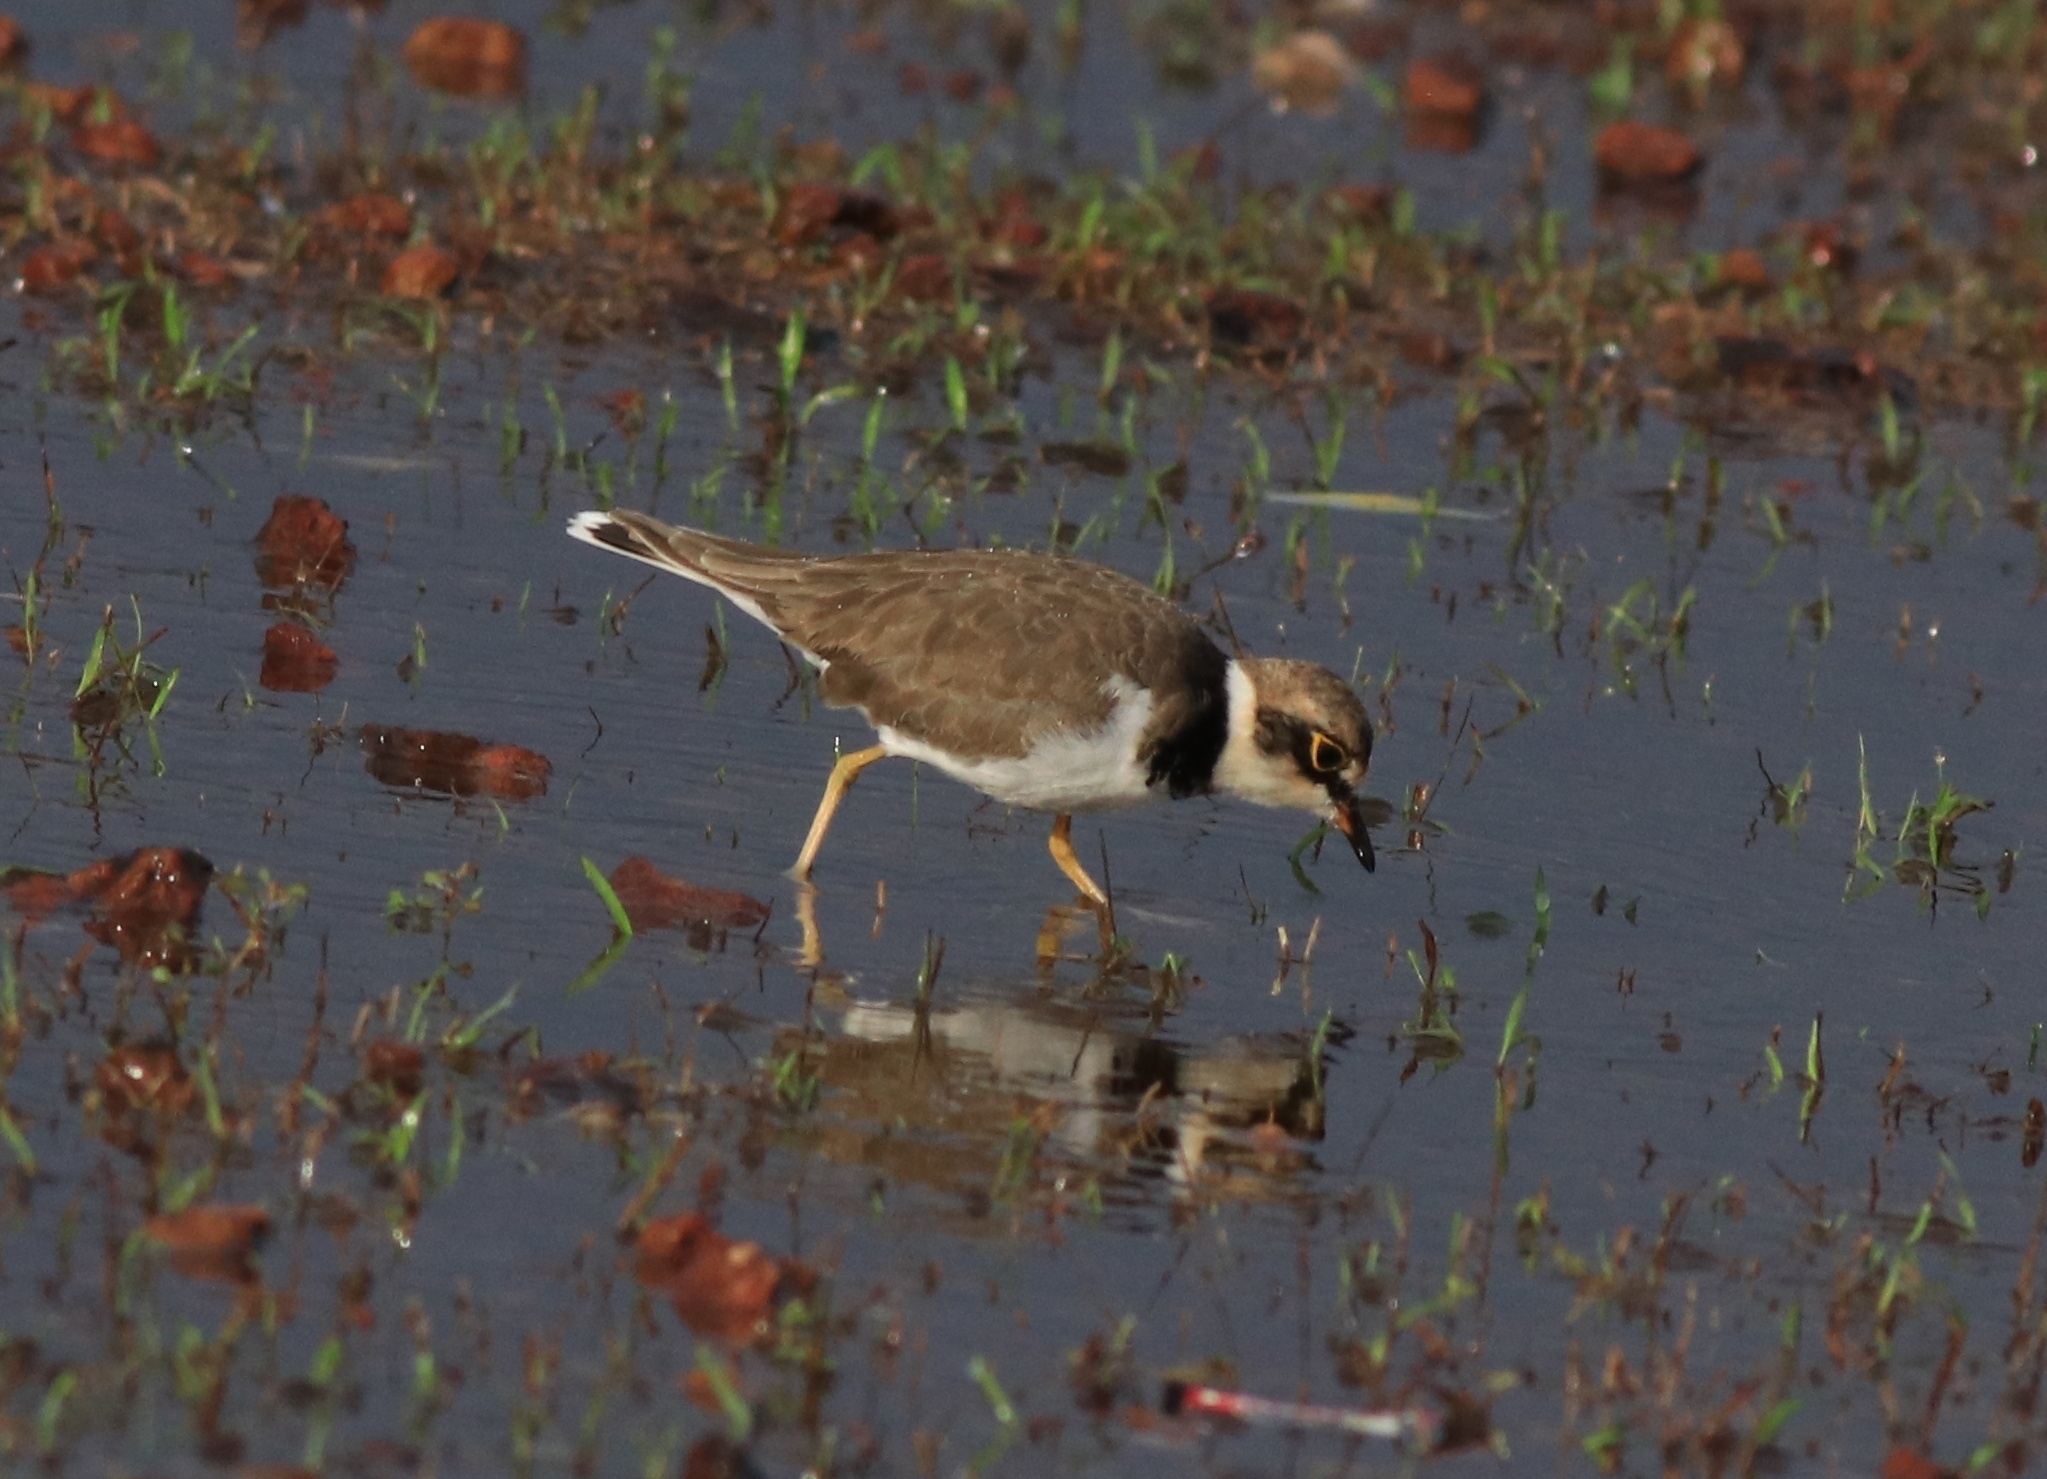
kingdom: Animalia
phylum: Chordata
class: Aves
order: Charadriiformes
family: Charadriidae
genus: Charadrius
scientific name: Charadrius dubius
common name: Little ringed plover
